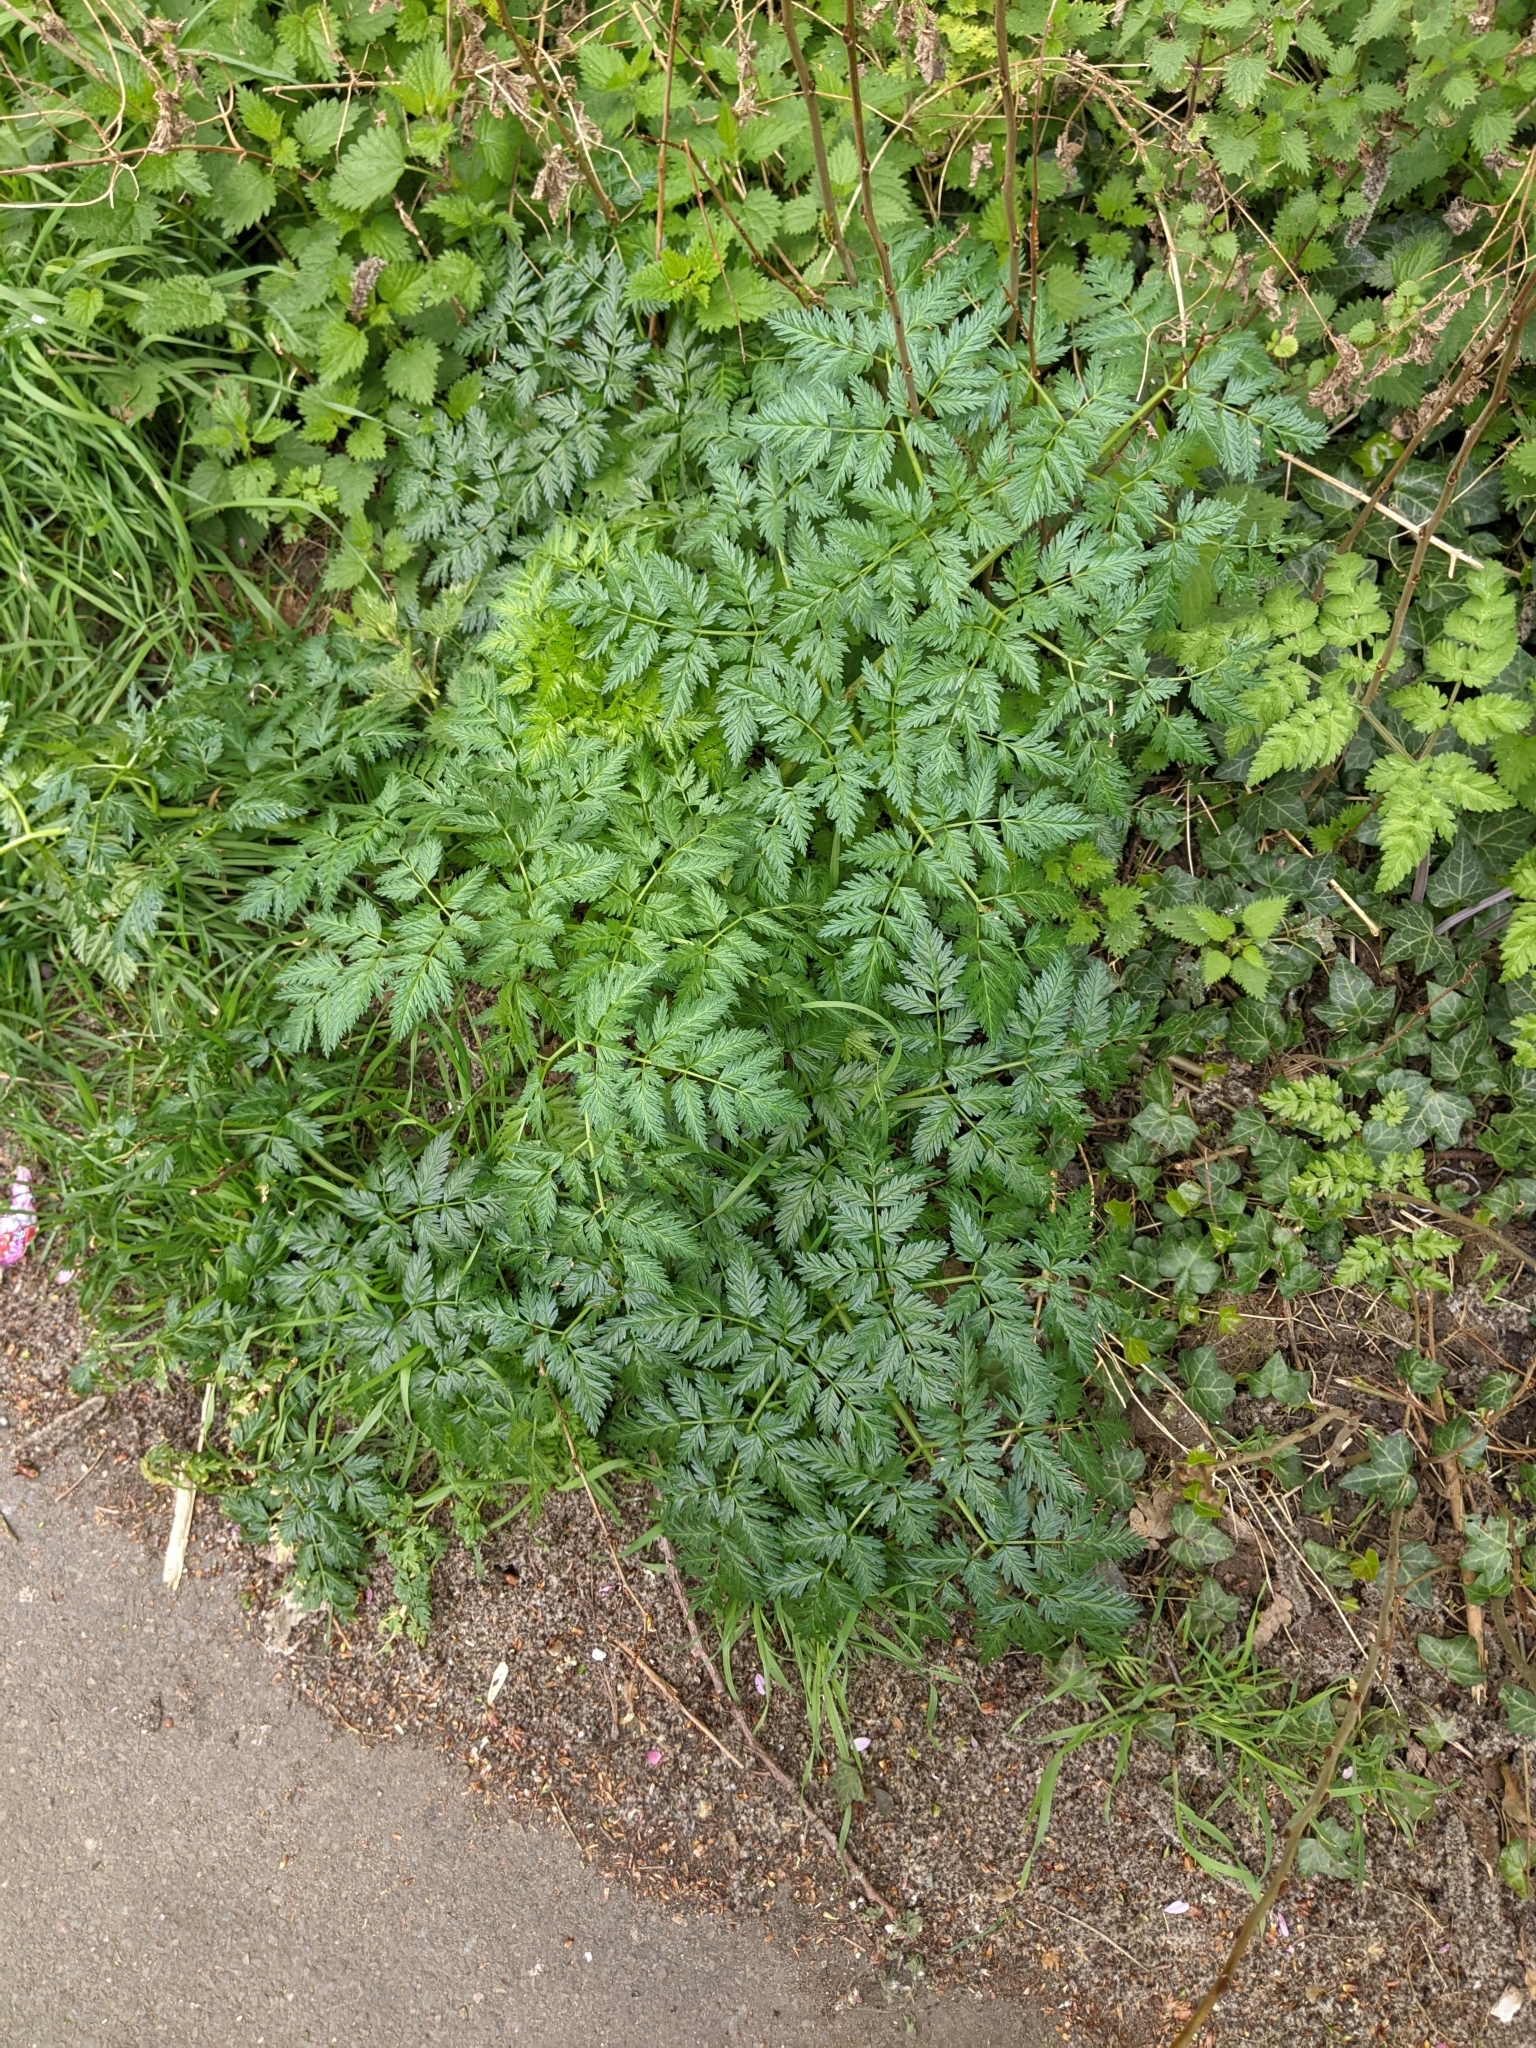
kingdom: Plantae
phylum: Tracheophyta
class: Magnoliopsida
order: Apiales
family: Apiaceae
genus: Conium
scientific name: Conium maculatum
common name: Hemlock
